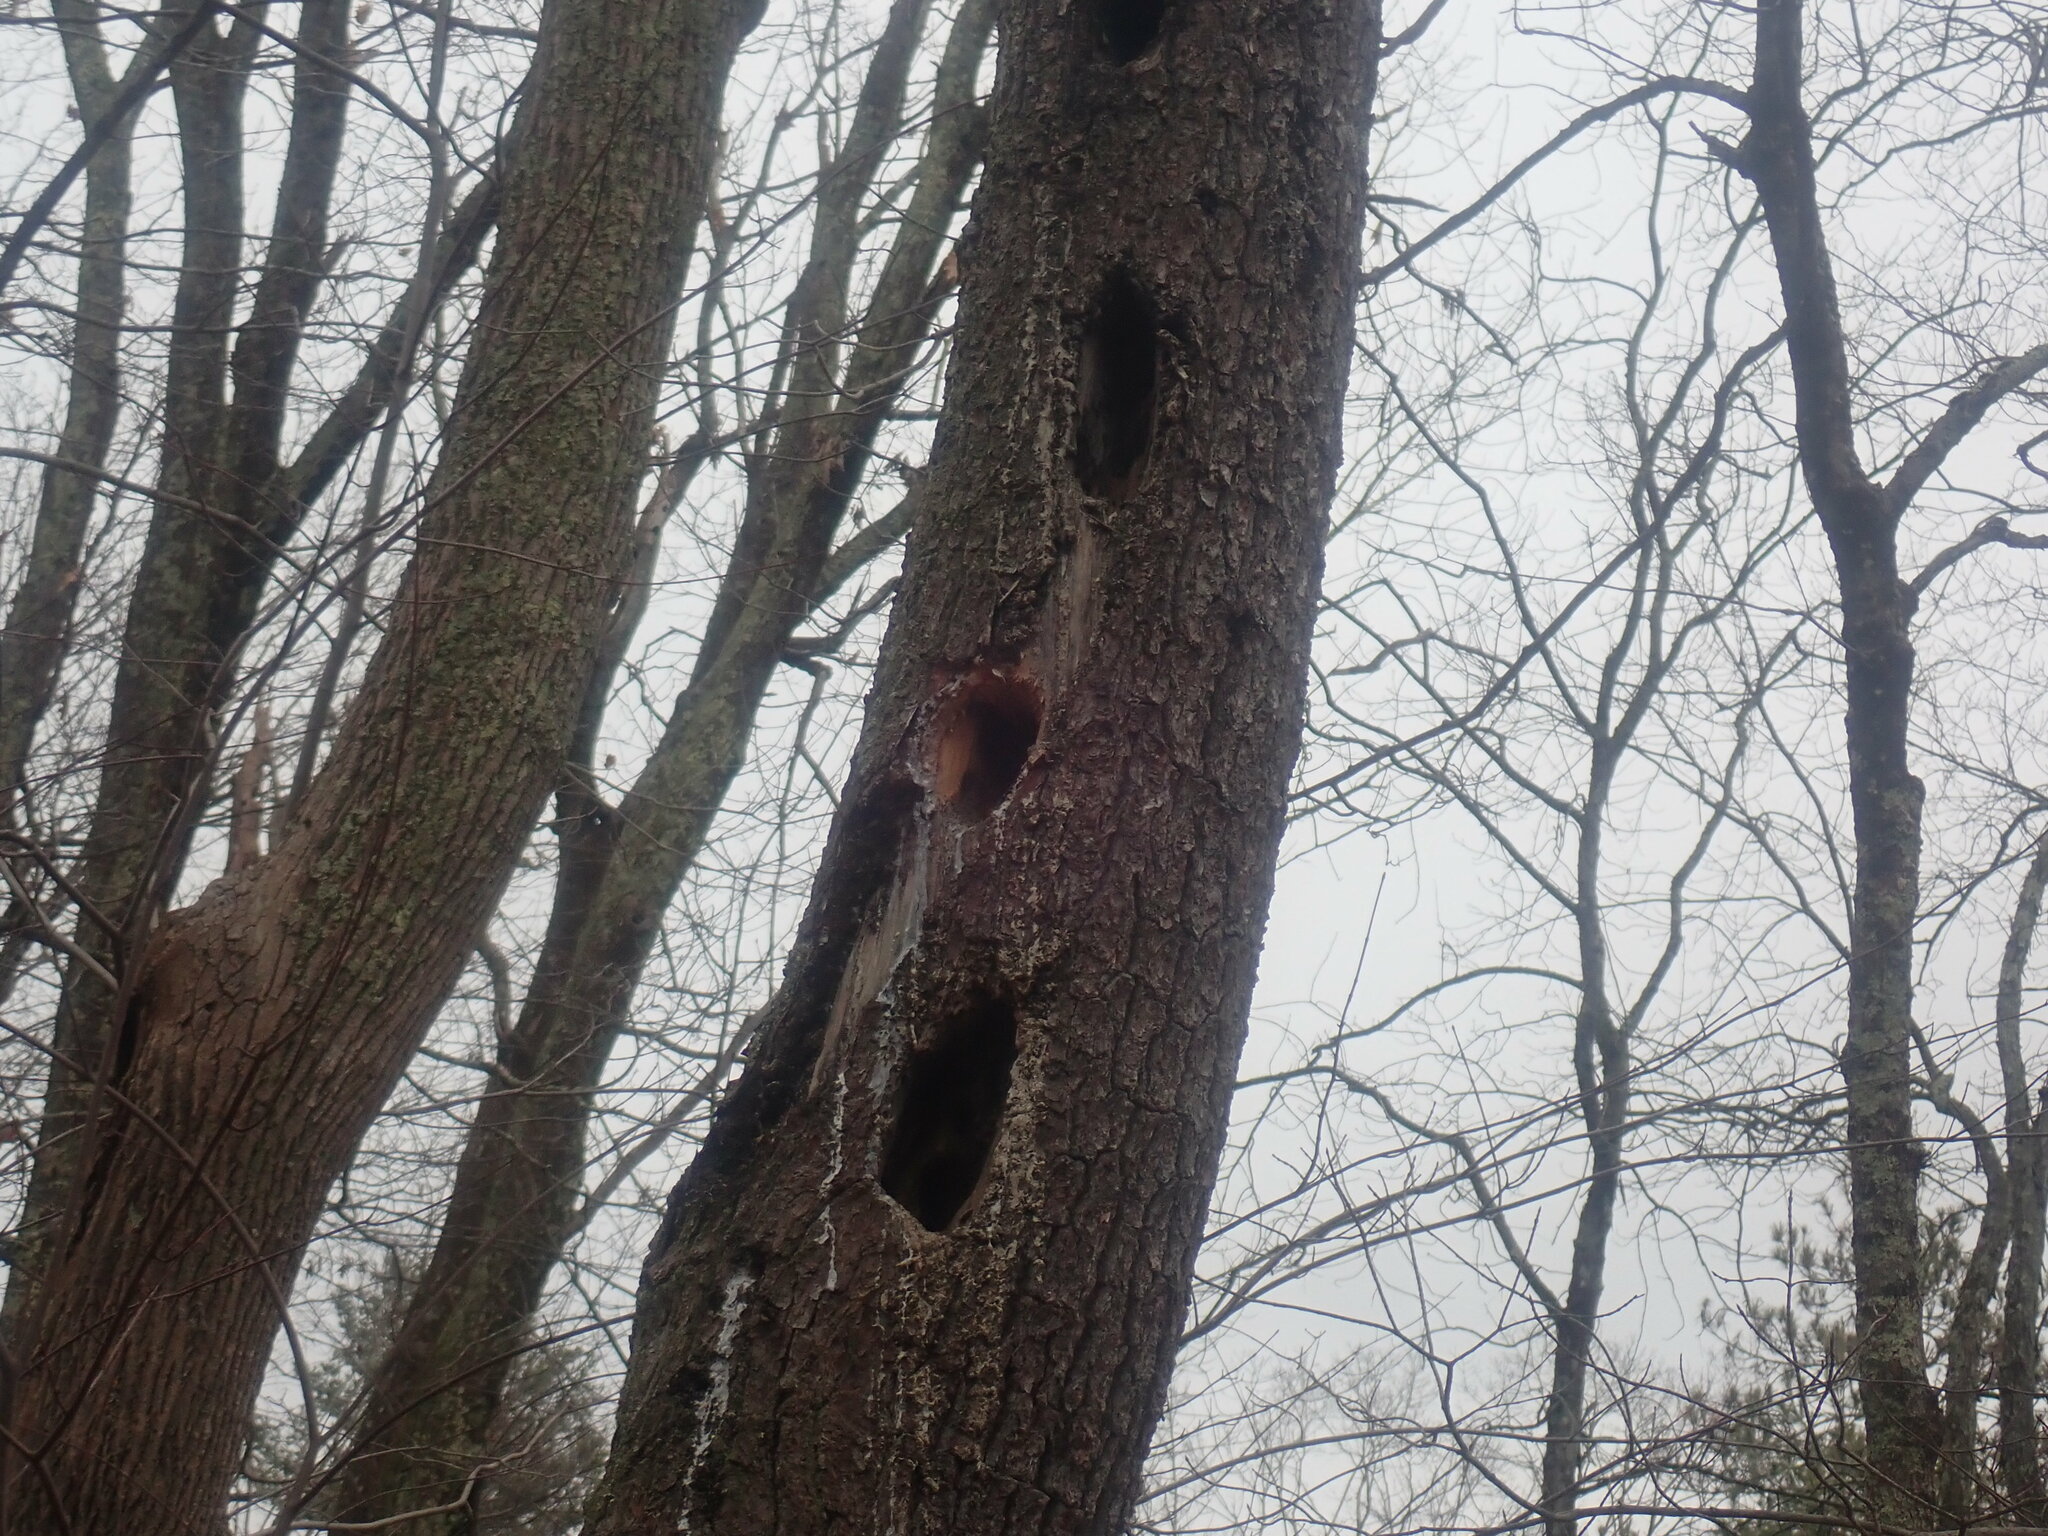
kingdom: Animalia
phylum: Chordata
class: Aves
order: Piciformes
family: Picidae
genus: Dryocopus
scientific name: Dryocopus pileatus
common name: Pileated woodpecker
